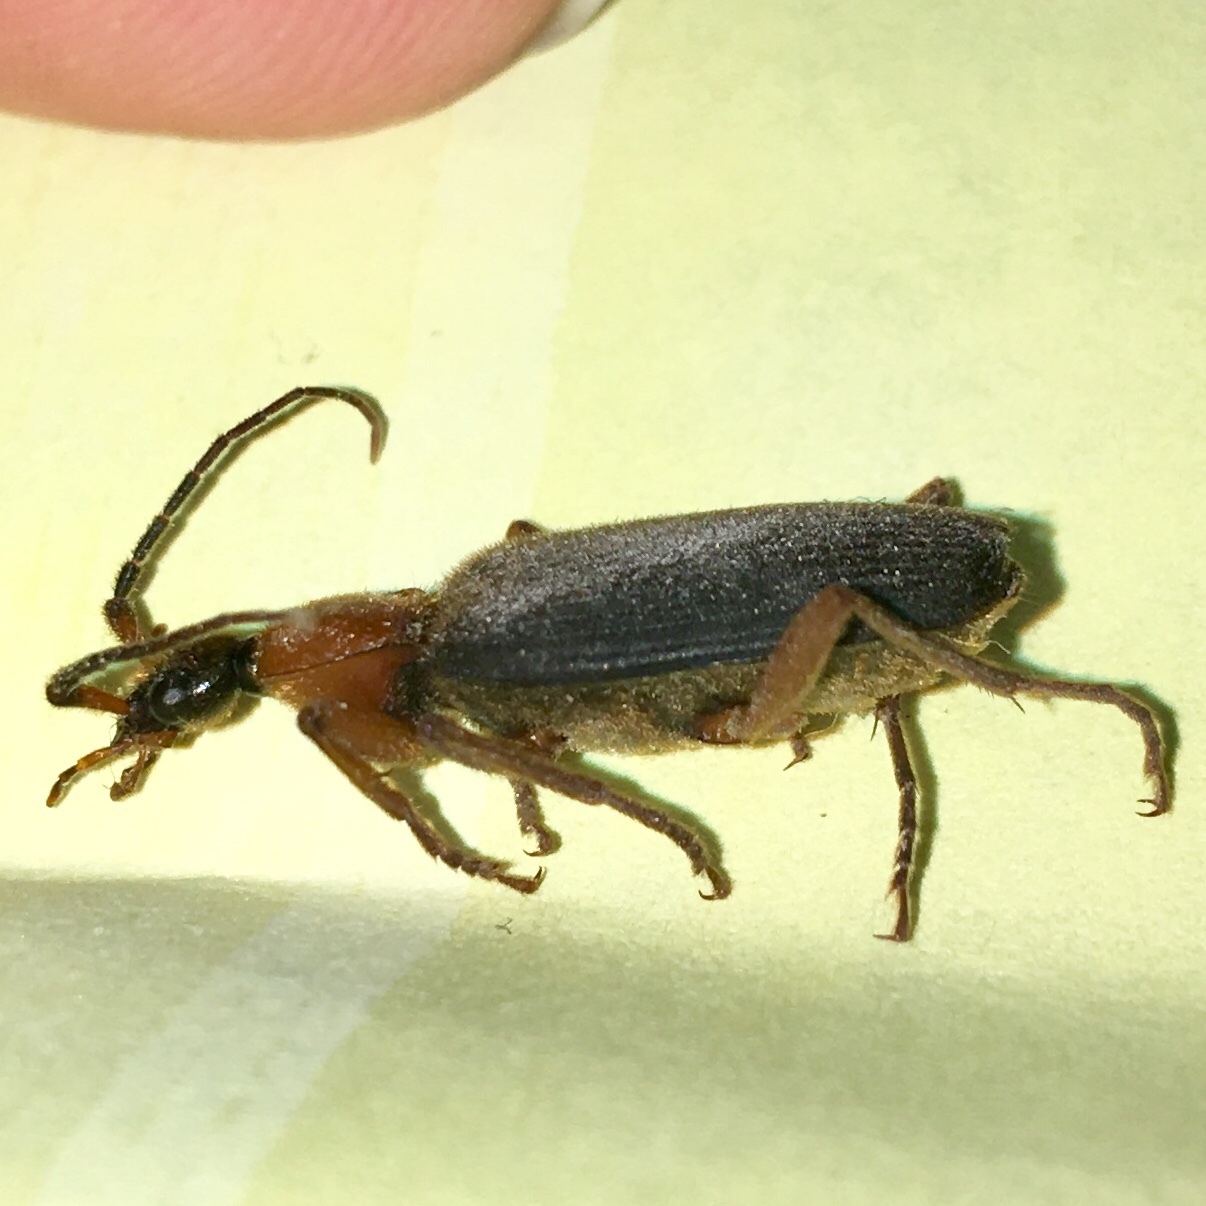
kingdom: Animalia
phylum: Arthropoda
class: Insecta
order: Coleoptera
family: Carabidae
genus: Galerita
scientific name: Galerita janus
